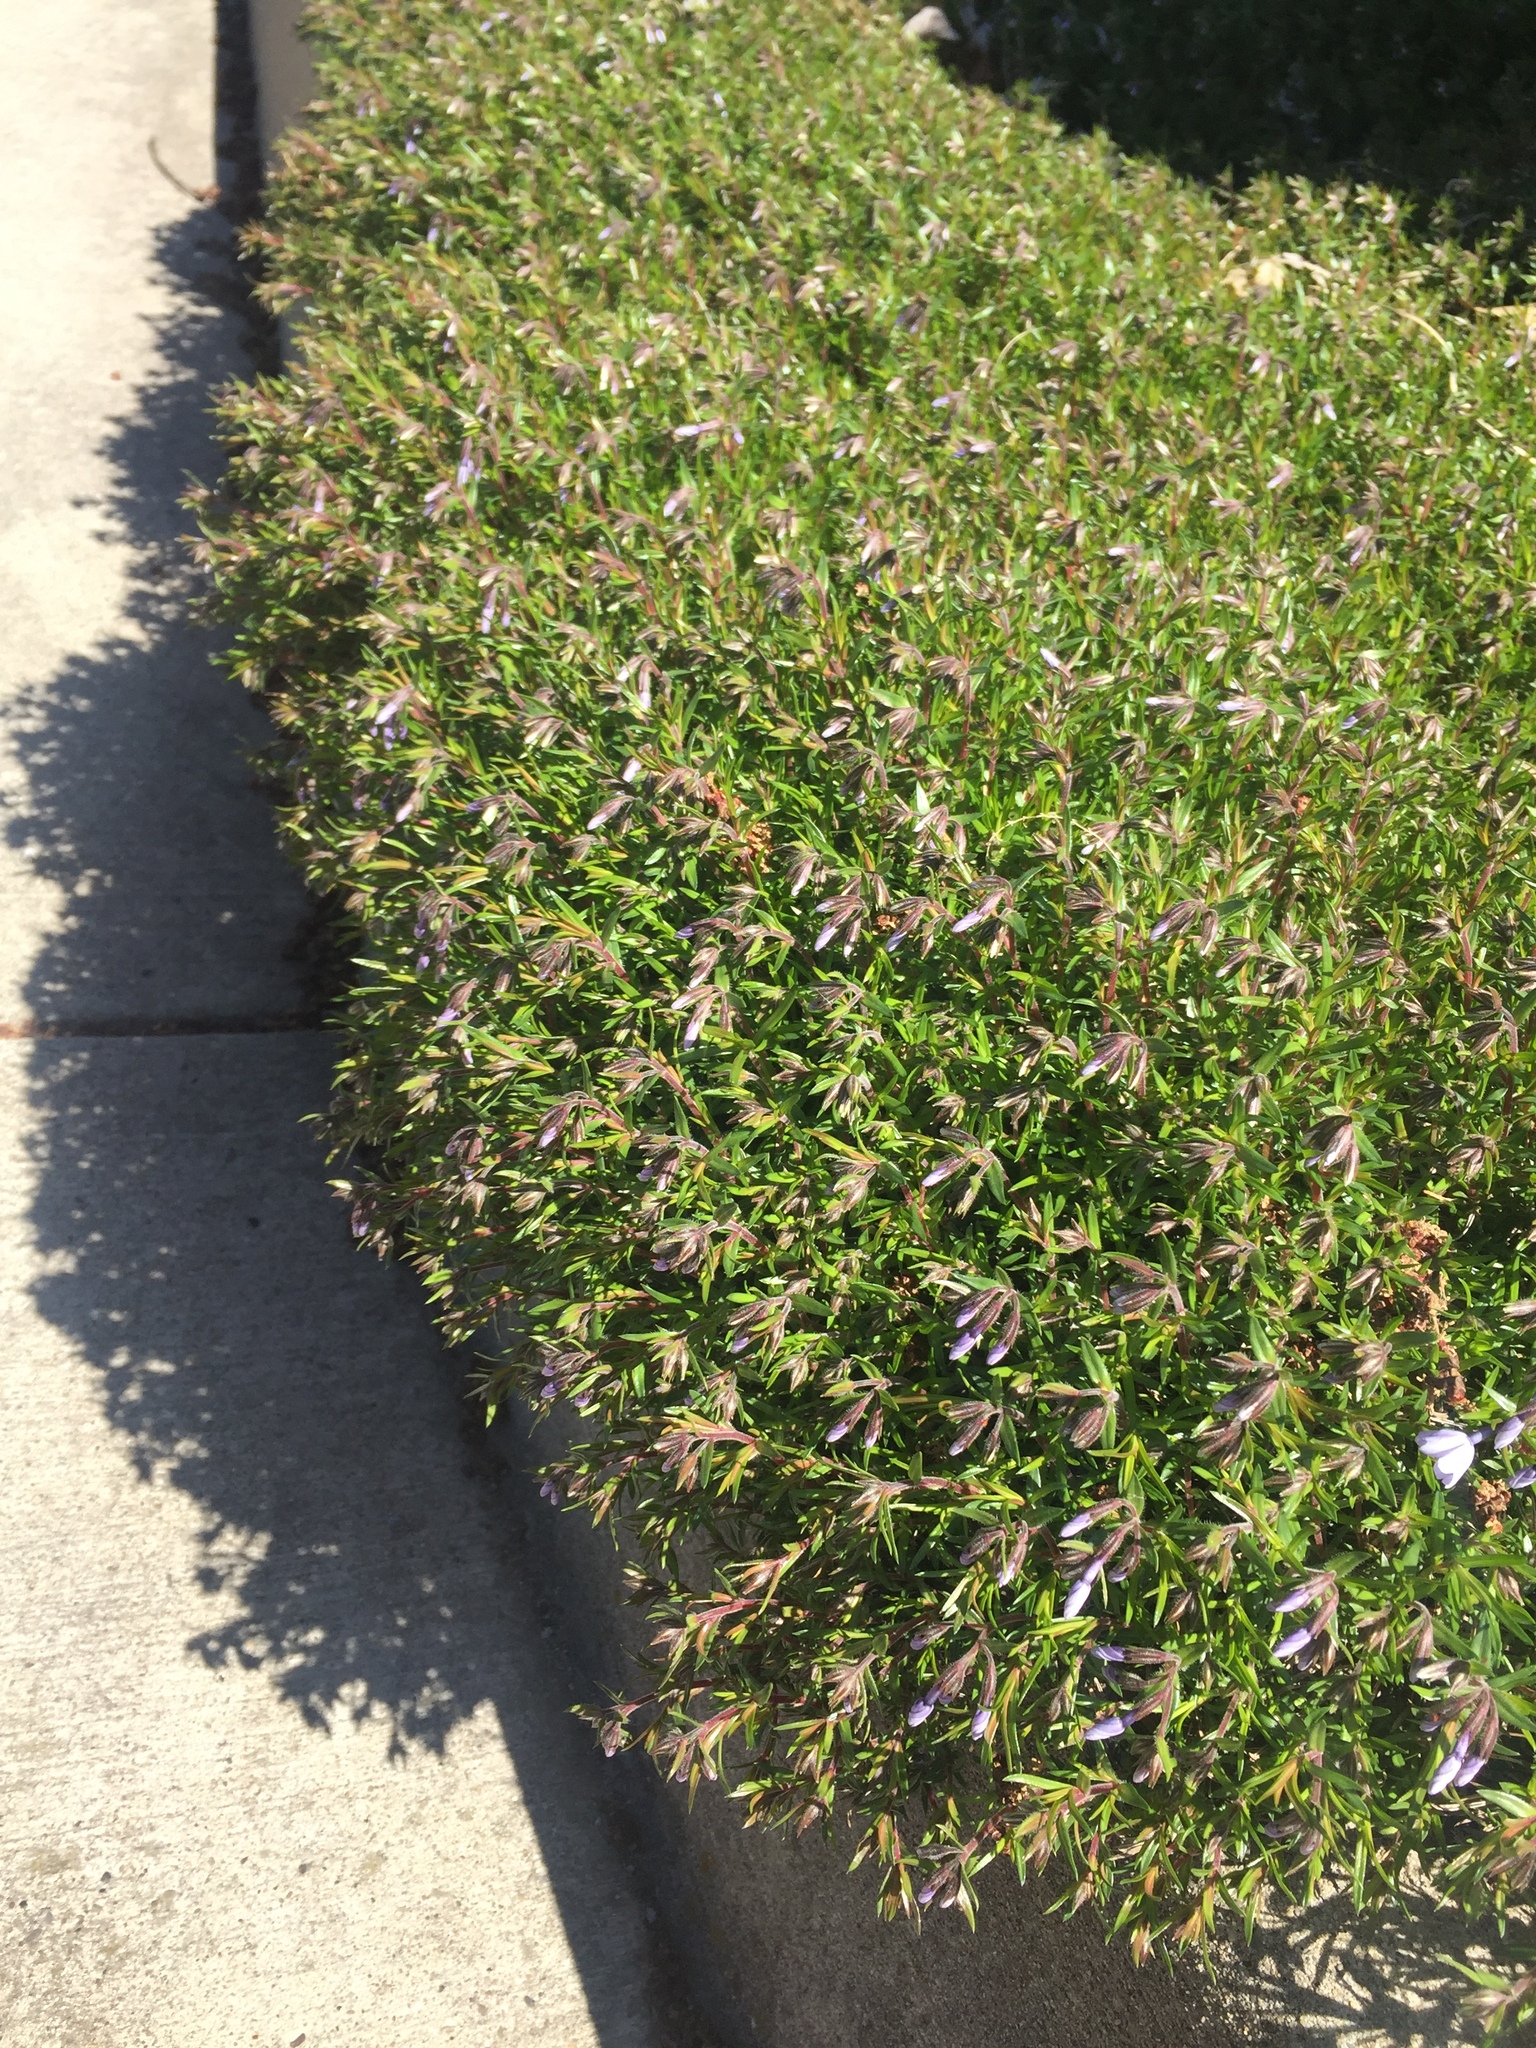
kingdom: Plantae
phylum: Tracheophyta
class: Magnoliopsida
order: Ericales
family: Polemoniaceae
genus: Phlox
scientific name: Phlox subulata
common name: Moss phlox
